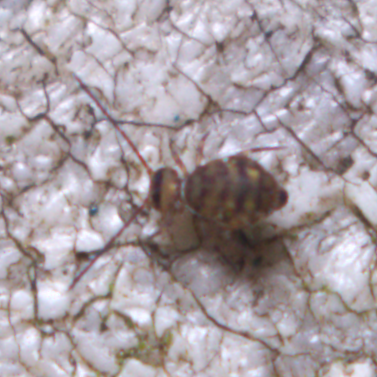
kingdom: Animalia
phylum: Arthropoda
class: Collembola
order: Symphypleona
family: Dicyrtomidae
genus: Ptenothrix
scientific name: Ptenothrix marmorata
